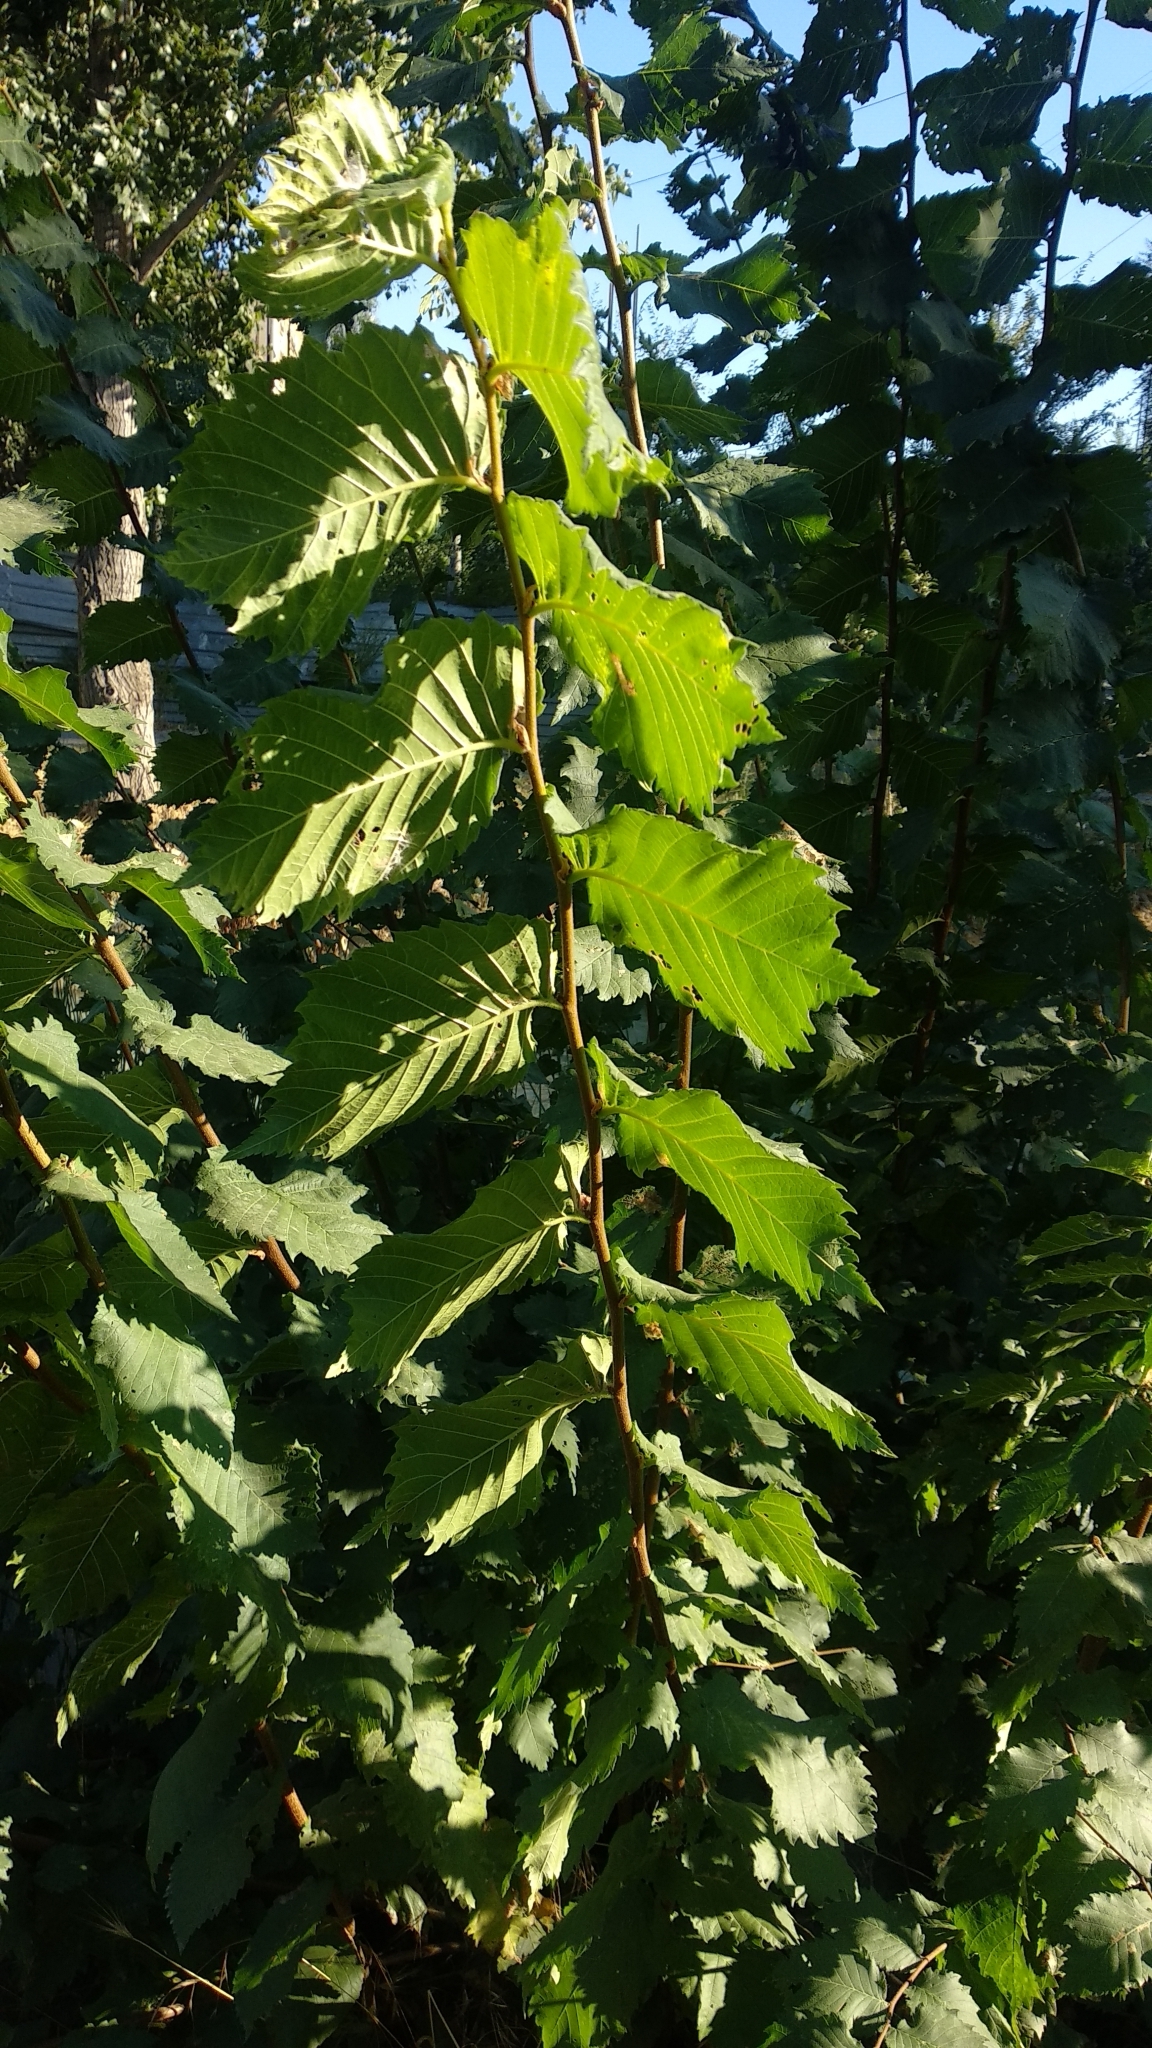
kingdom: Plantae
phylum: Tracheophyta
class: Magnoliopsida
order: Rosales
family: Ulmaceae
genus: Ulmus
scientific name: Ulmus glabra
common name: Wych elm
